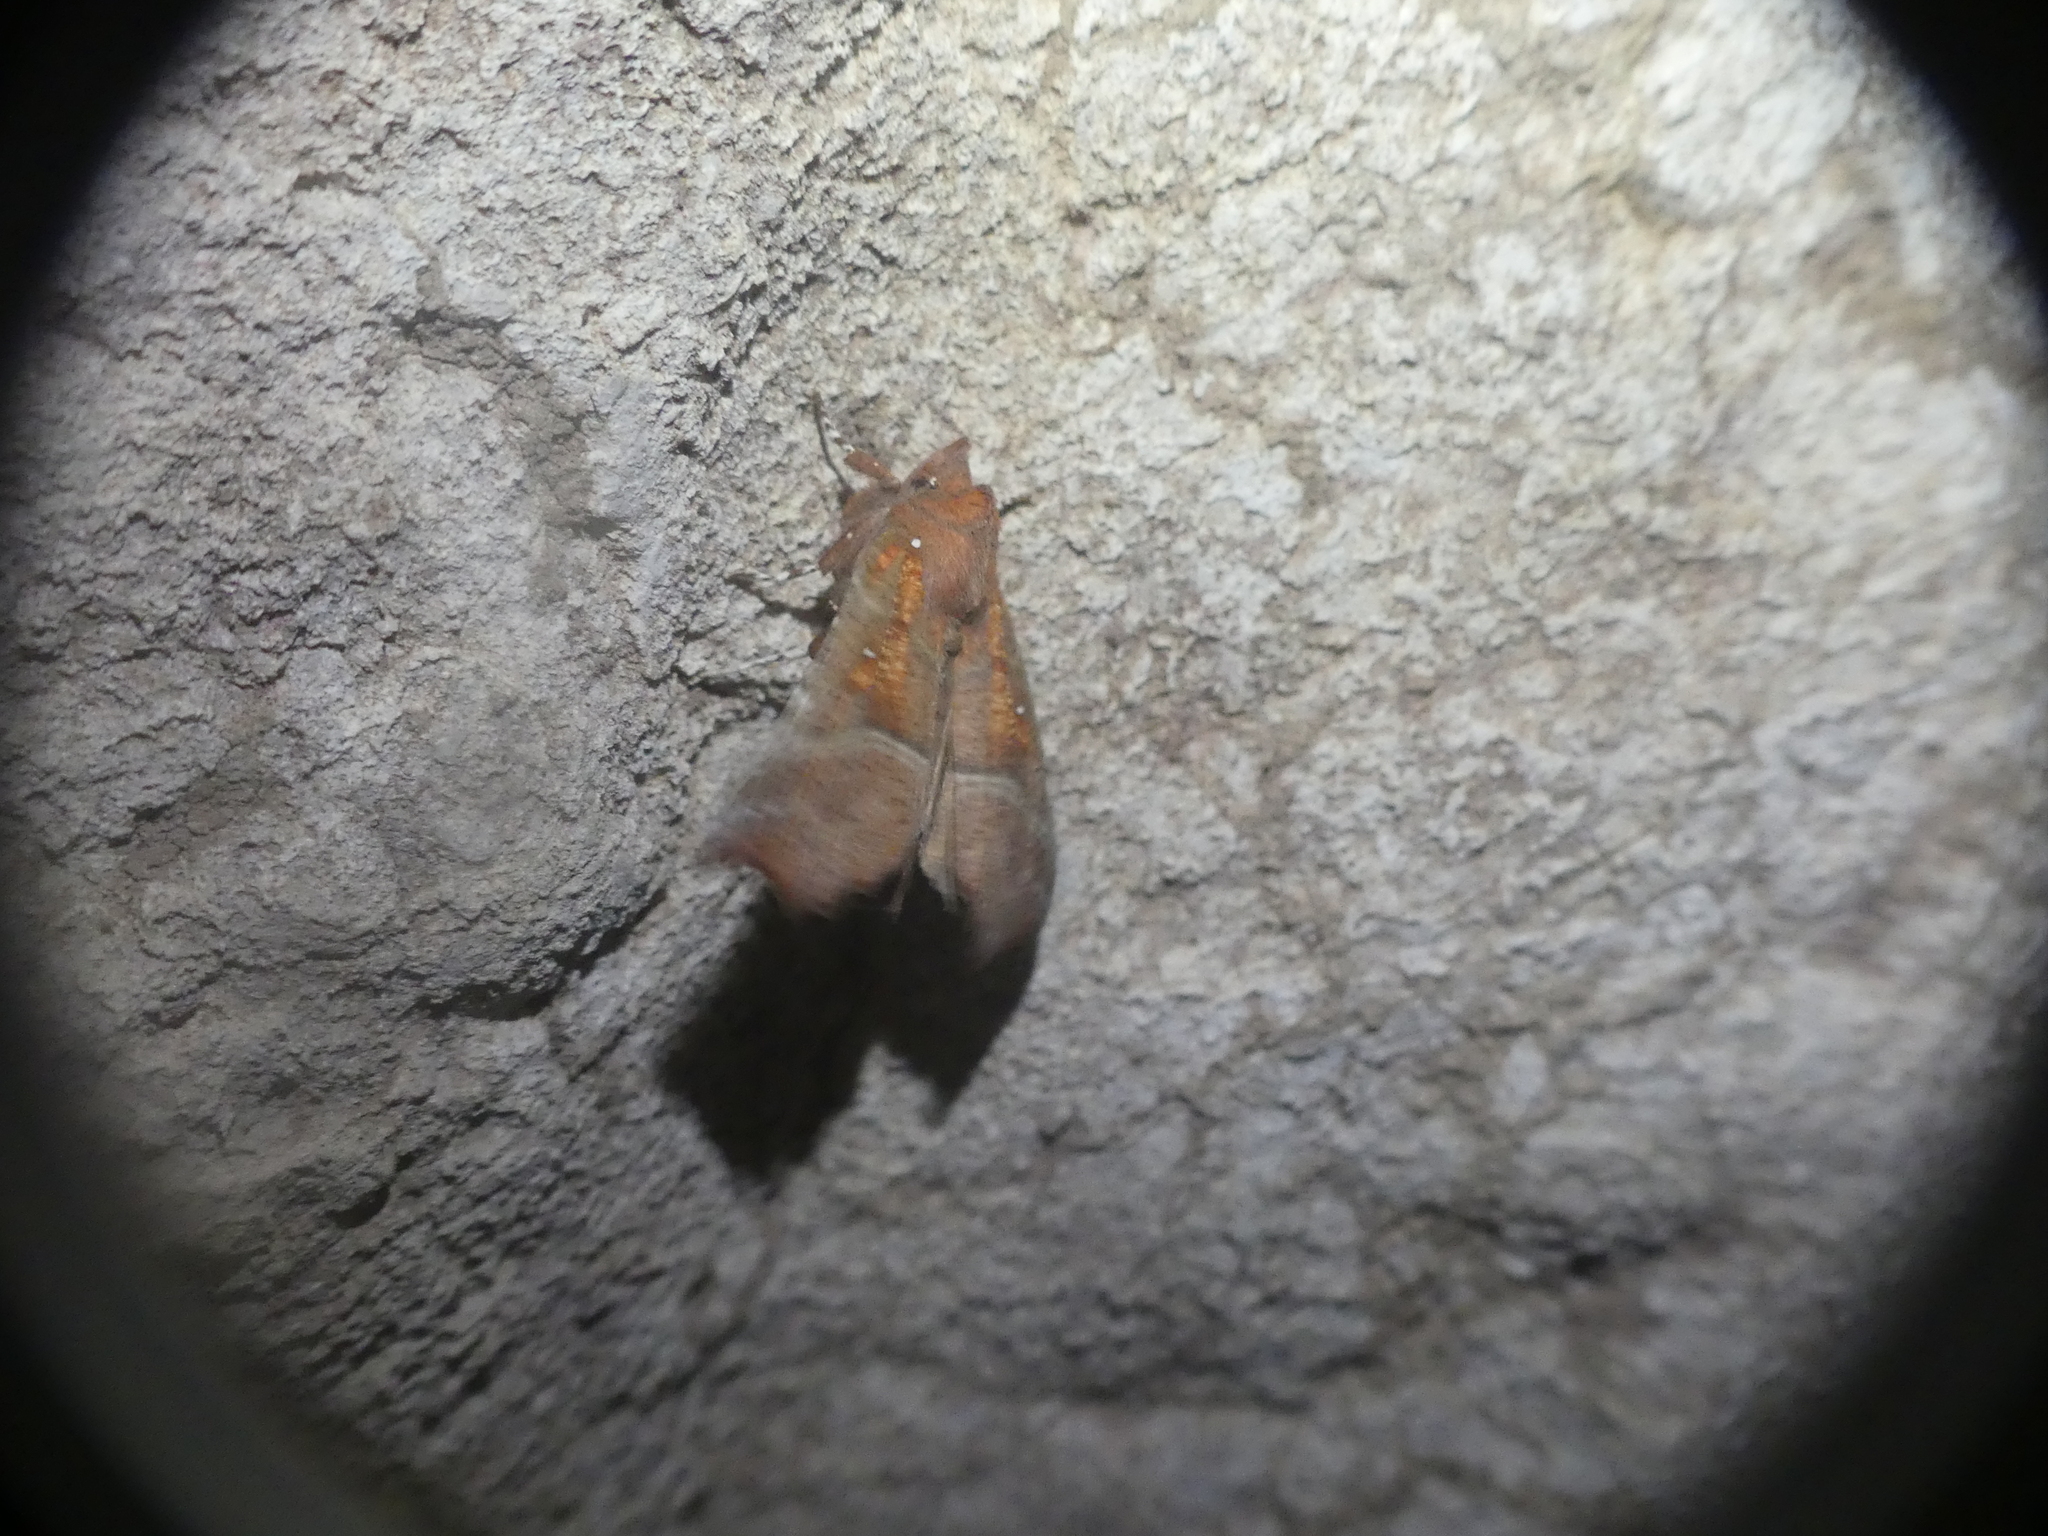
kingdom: Animalia
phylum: Arthropoda
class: Insecta
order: Lepidoptera
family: Erebidae
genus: Scoliopteryx
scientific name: Scoliopteryx libatrix
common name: Herald
